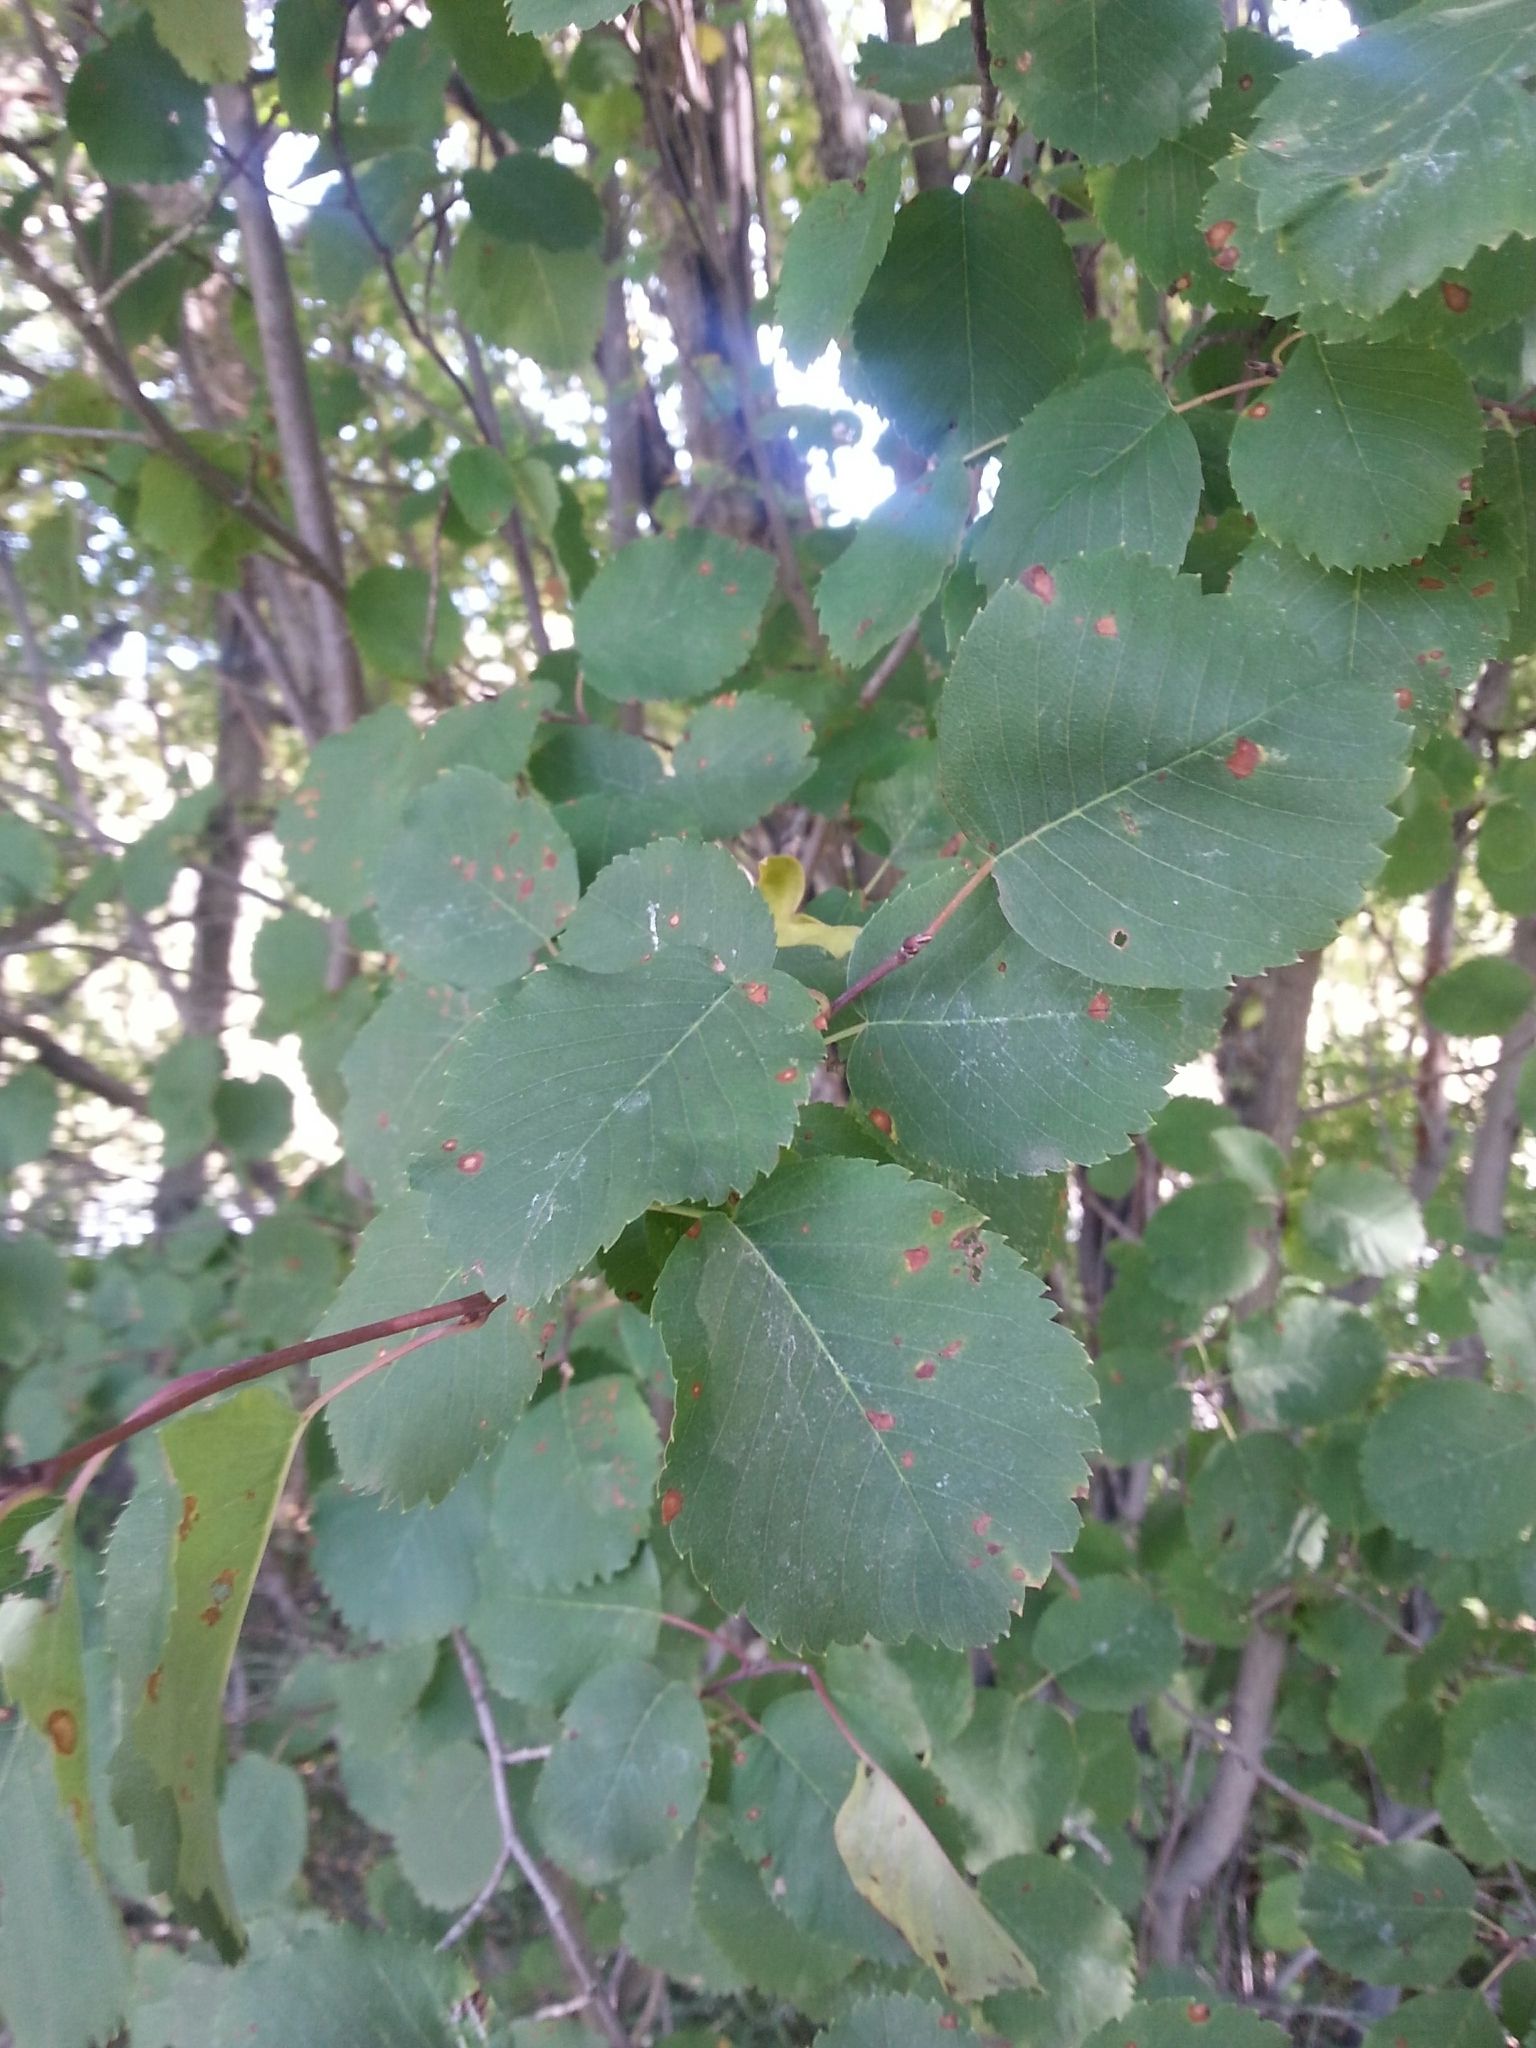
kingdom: Plantae
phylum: Tracheophyta
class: Magnoliopsida
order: Rosales
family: Rosaceae
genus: Amelanchier
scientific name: Amelanchier alnifolia
